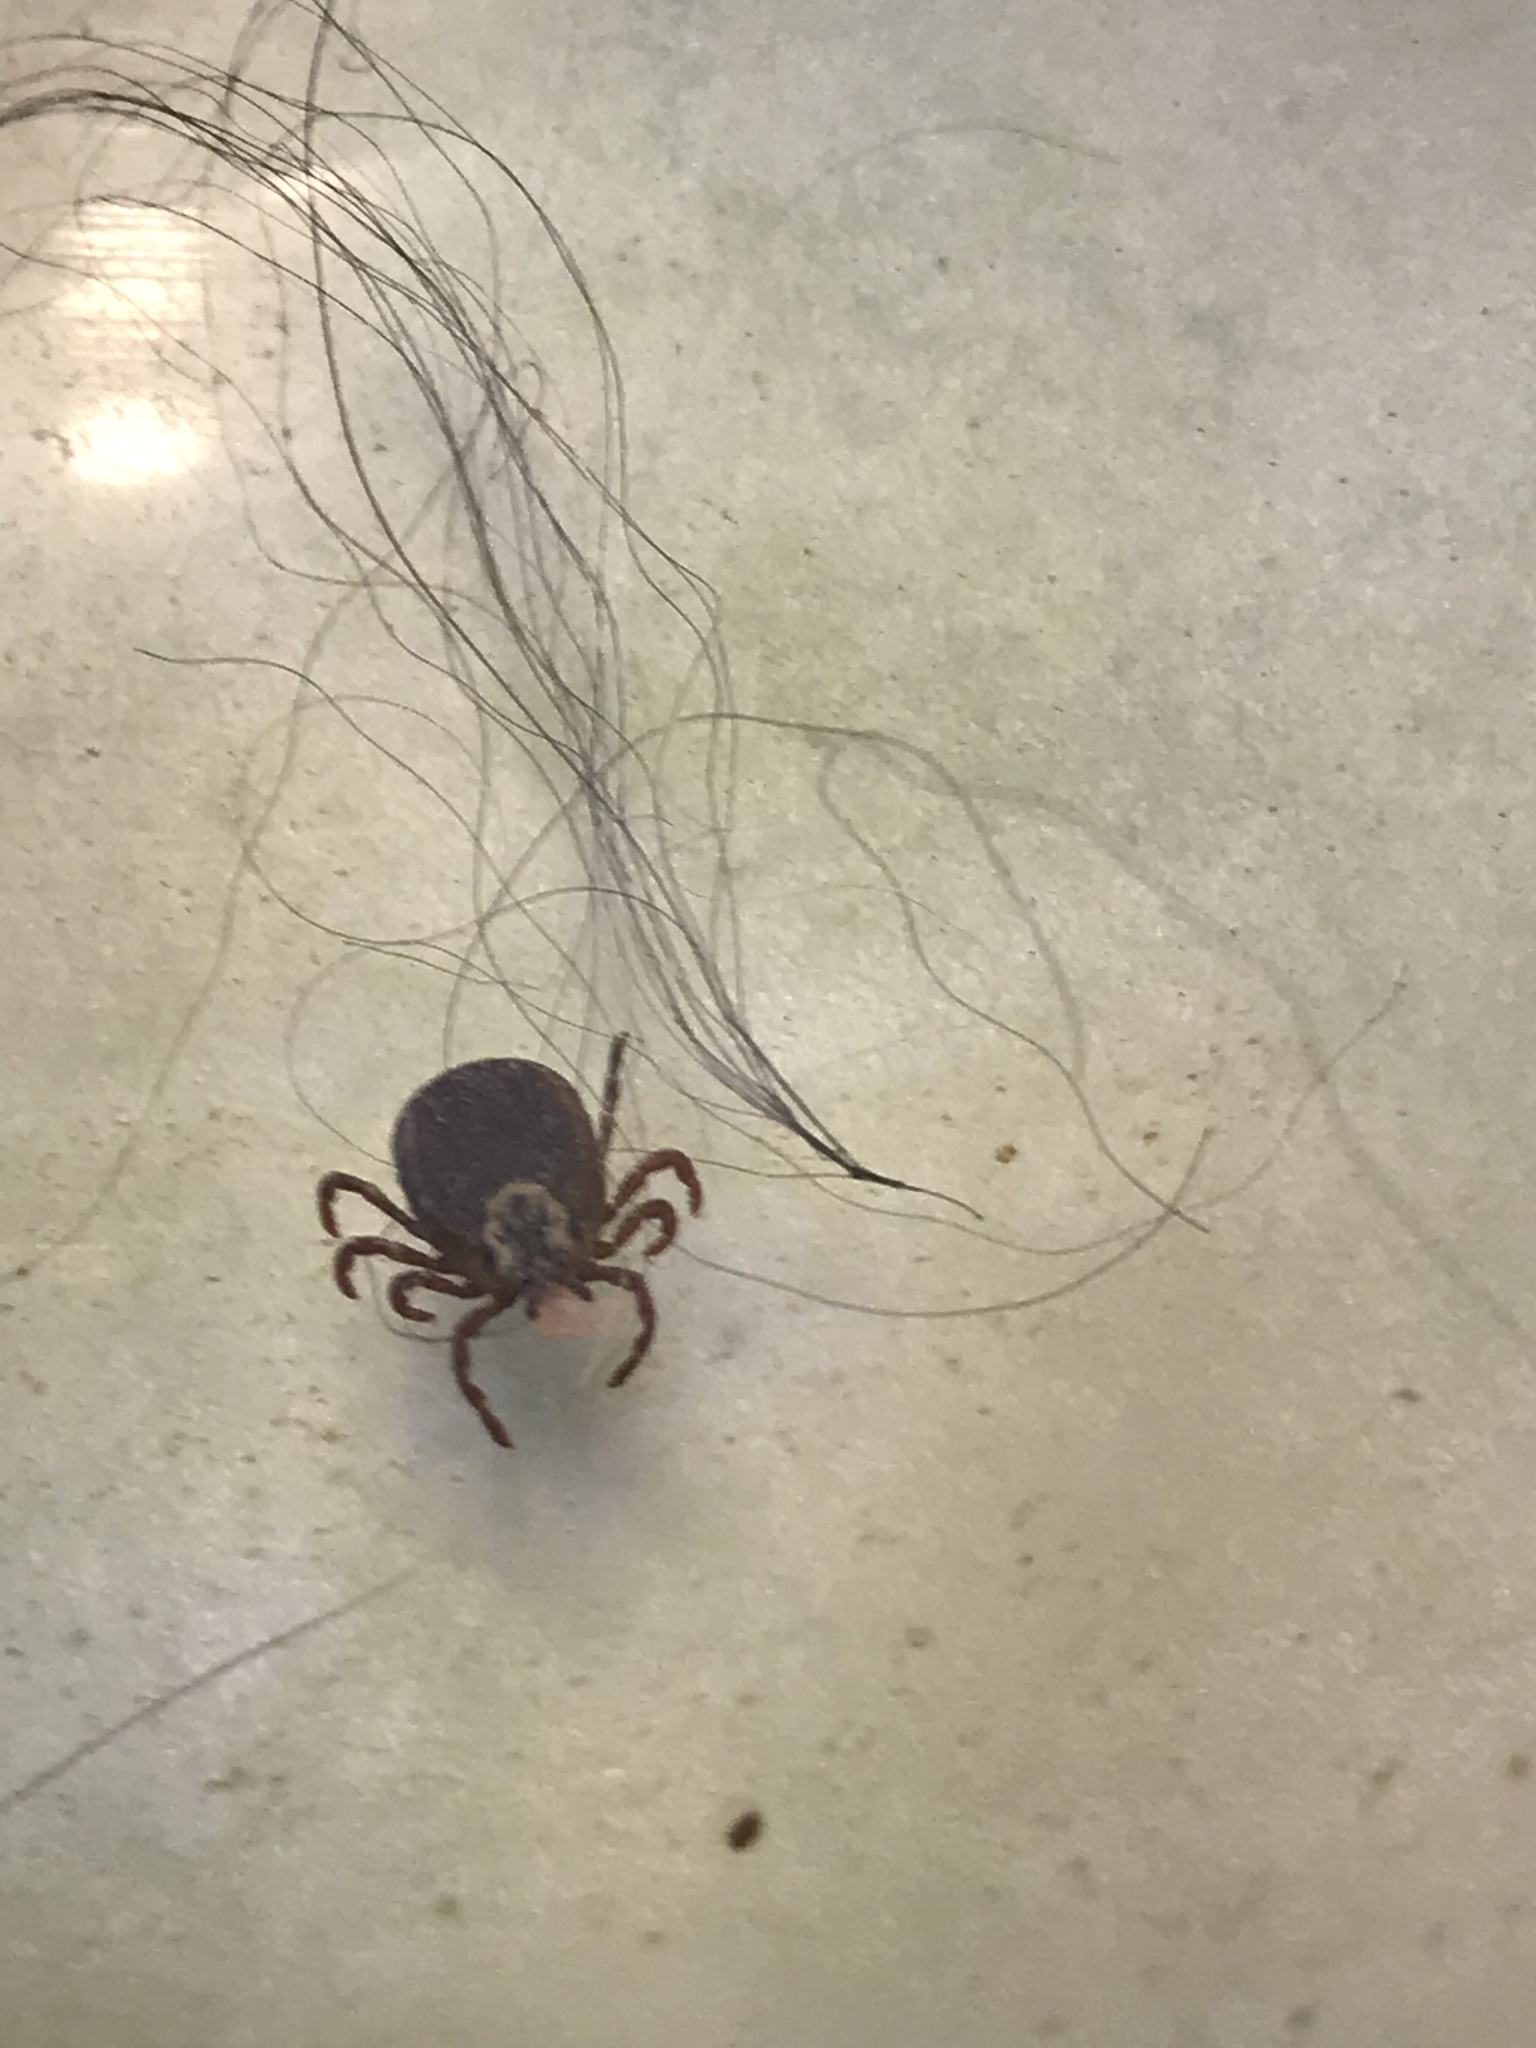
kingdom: Animalia
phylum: Arthropoda
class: Arachnida
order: Ixodida
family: Ixodidae
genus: Dermacentor
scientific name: Dermacentor variabilis
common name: American dog tick
